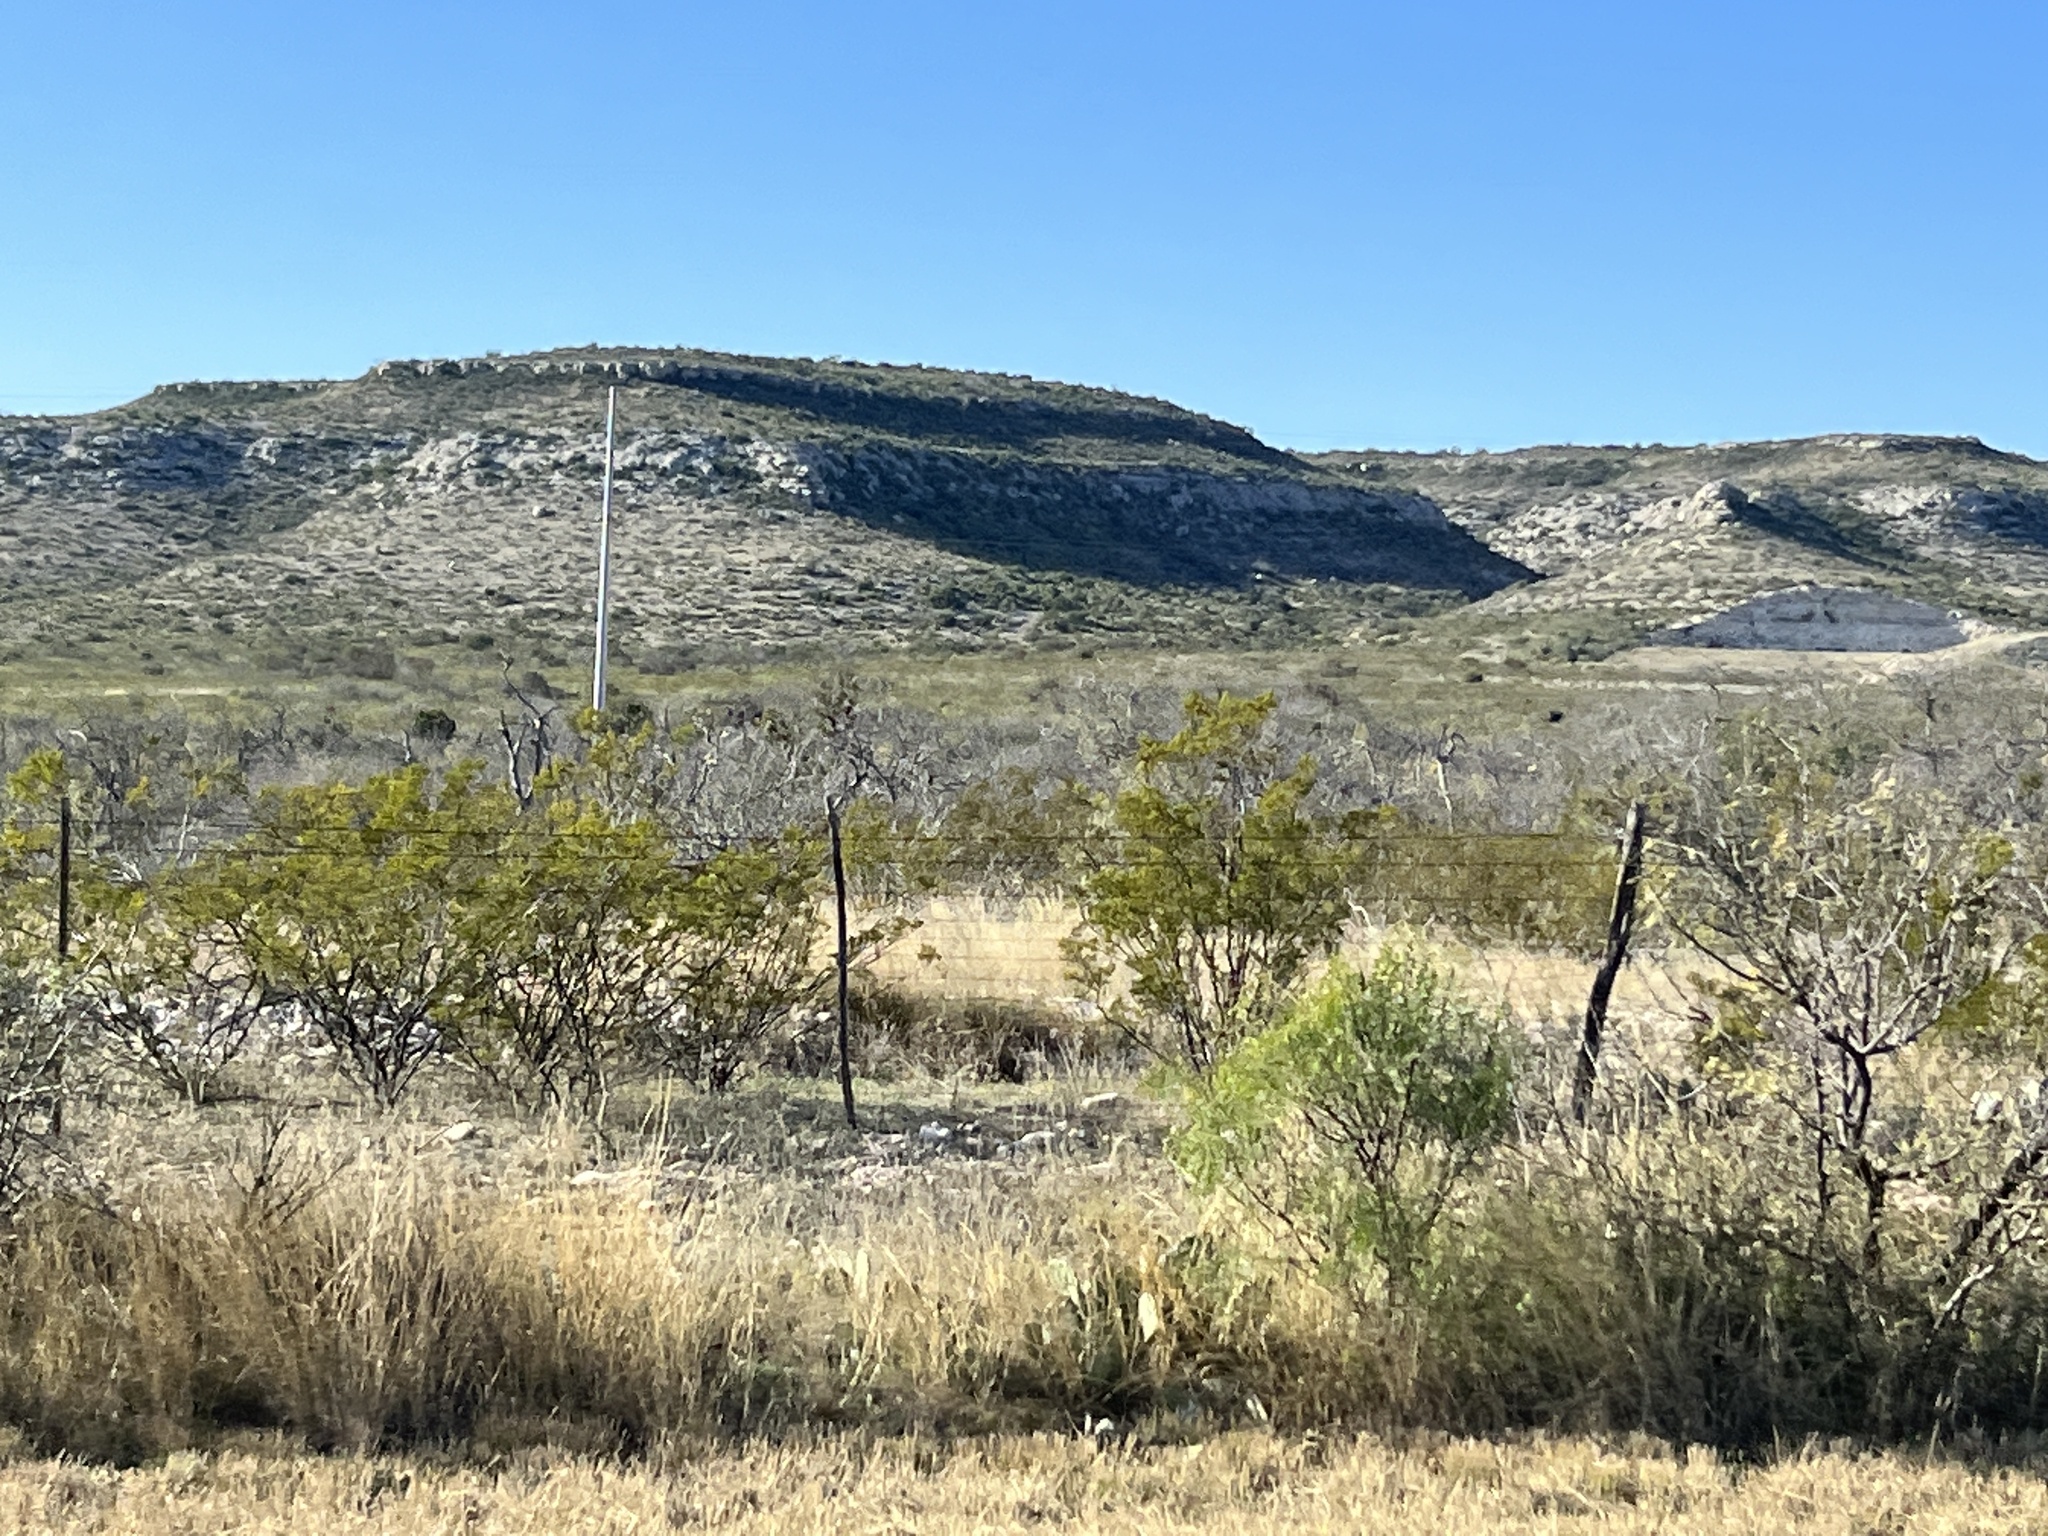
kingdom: Plantae
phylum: Tracheophyta
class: Magnoliopsida
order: Zygophyllales
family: Zygophyllaceae
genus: Larrea
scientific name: Larrea tridentata
